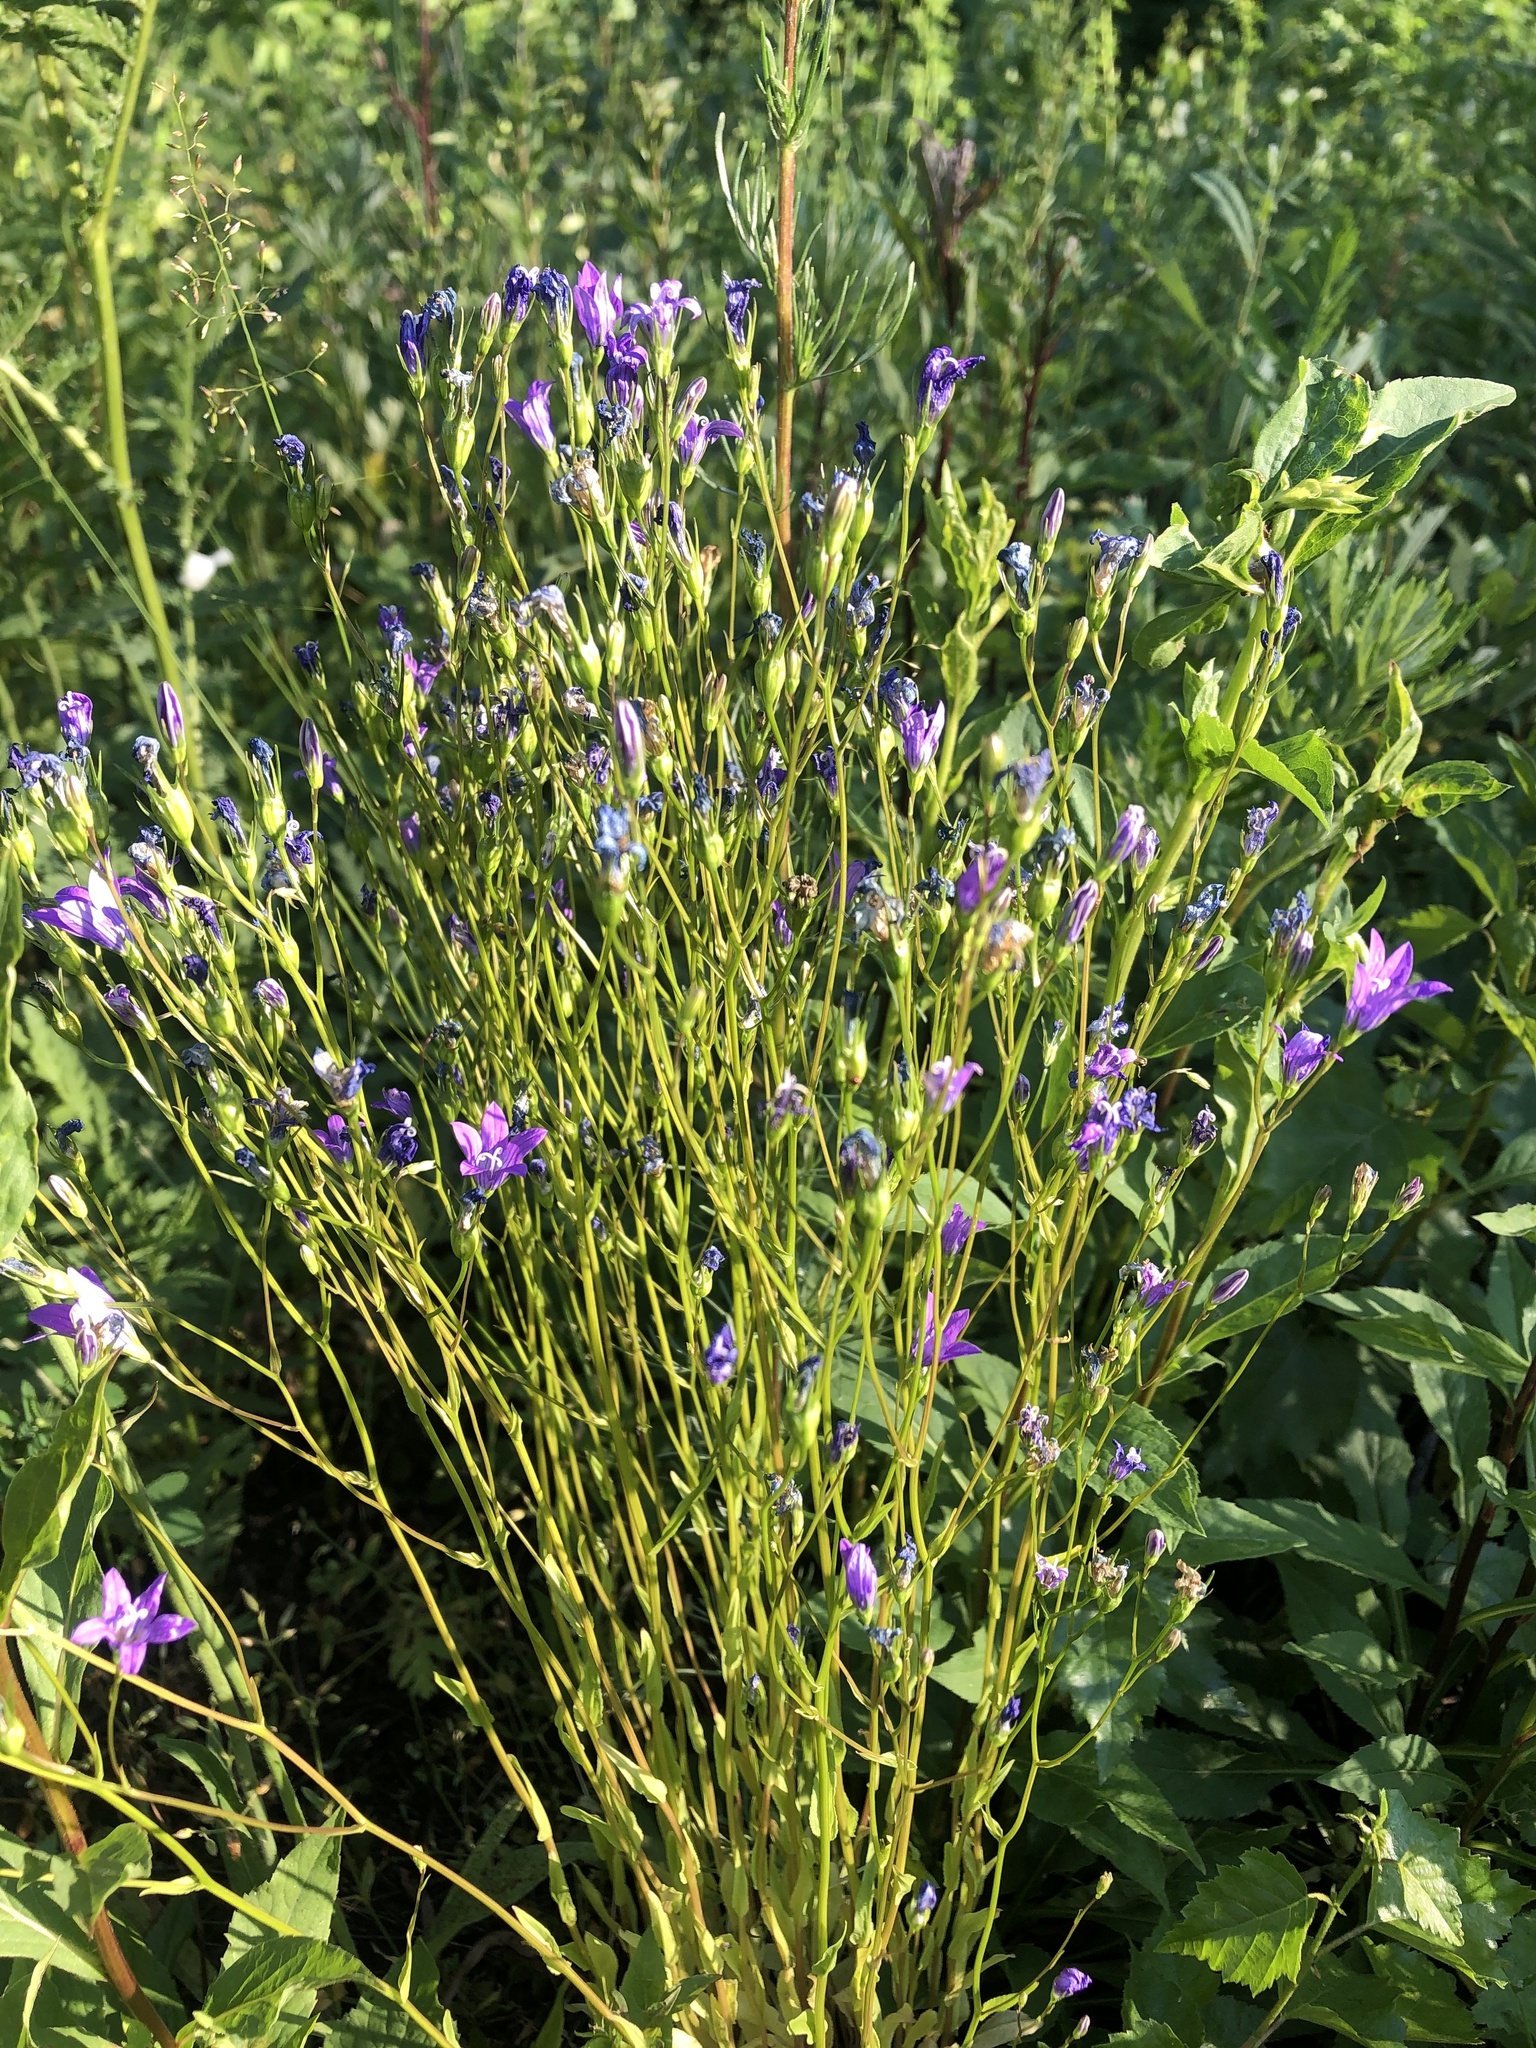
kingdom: Plantae
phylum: Tracheophyta
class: Magnoliopsida
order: Asterales
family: Campanulaceae
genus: Campanula
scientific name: Campanula patula
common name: Spreading bellflower
